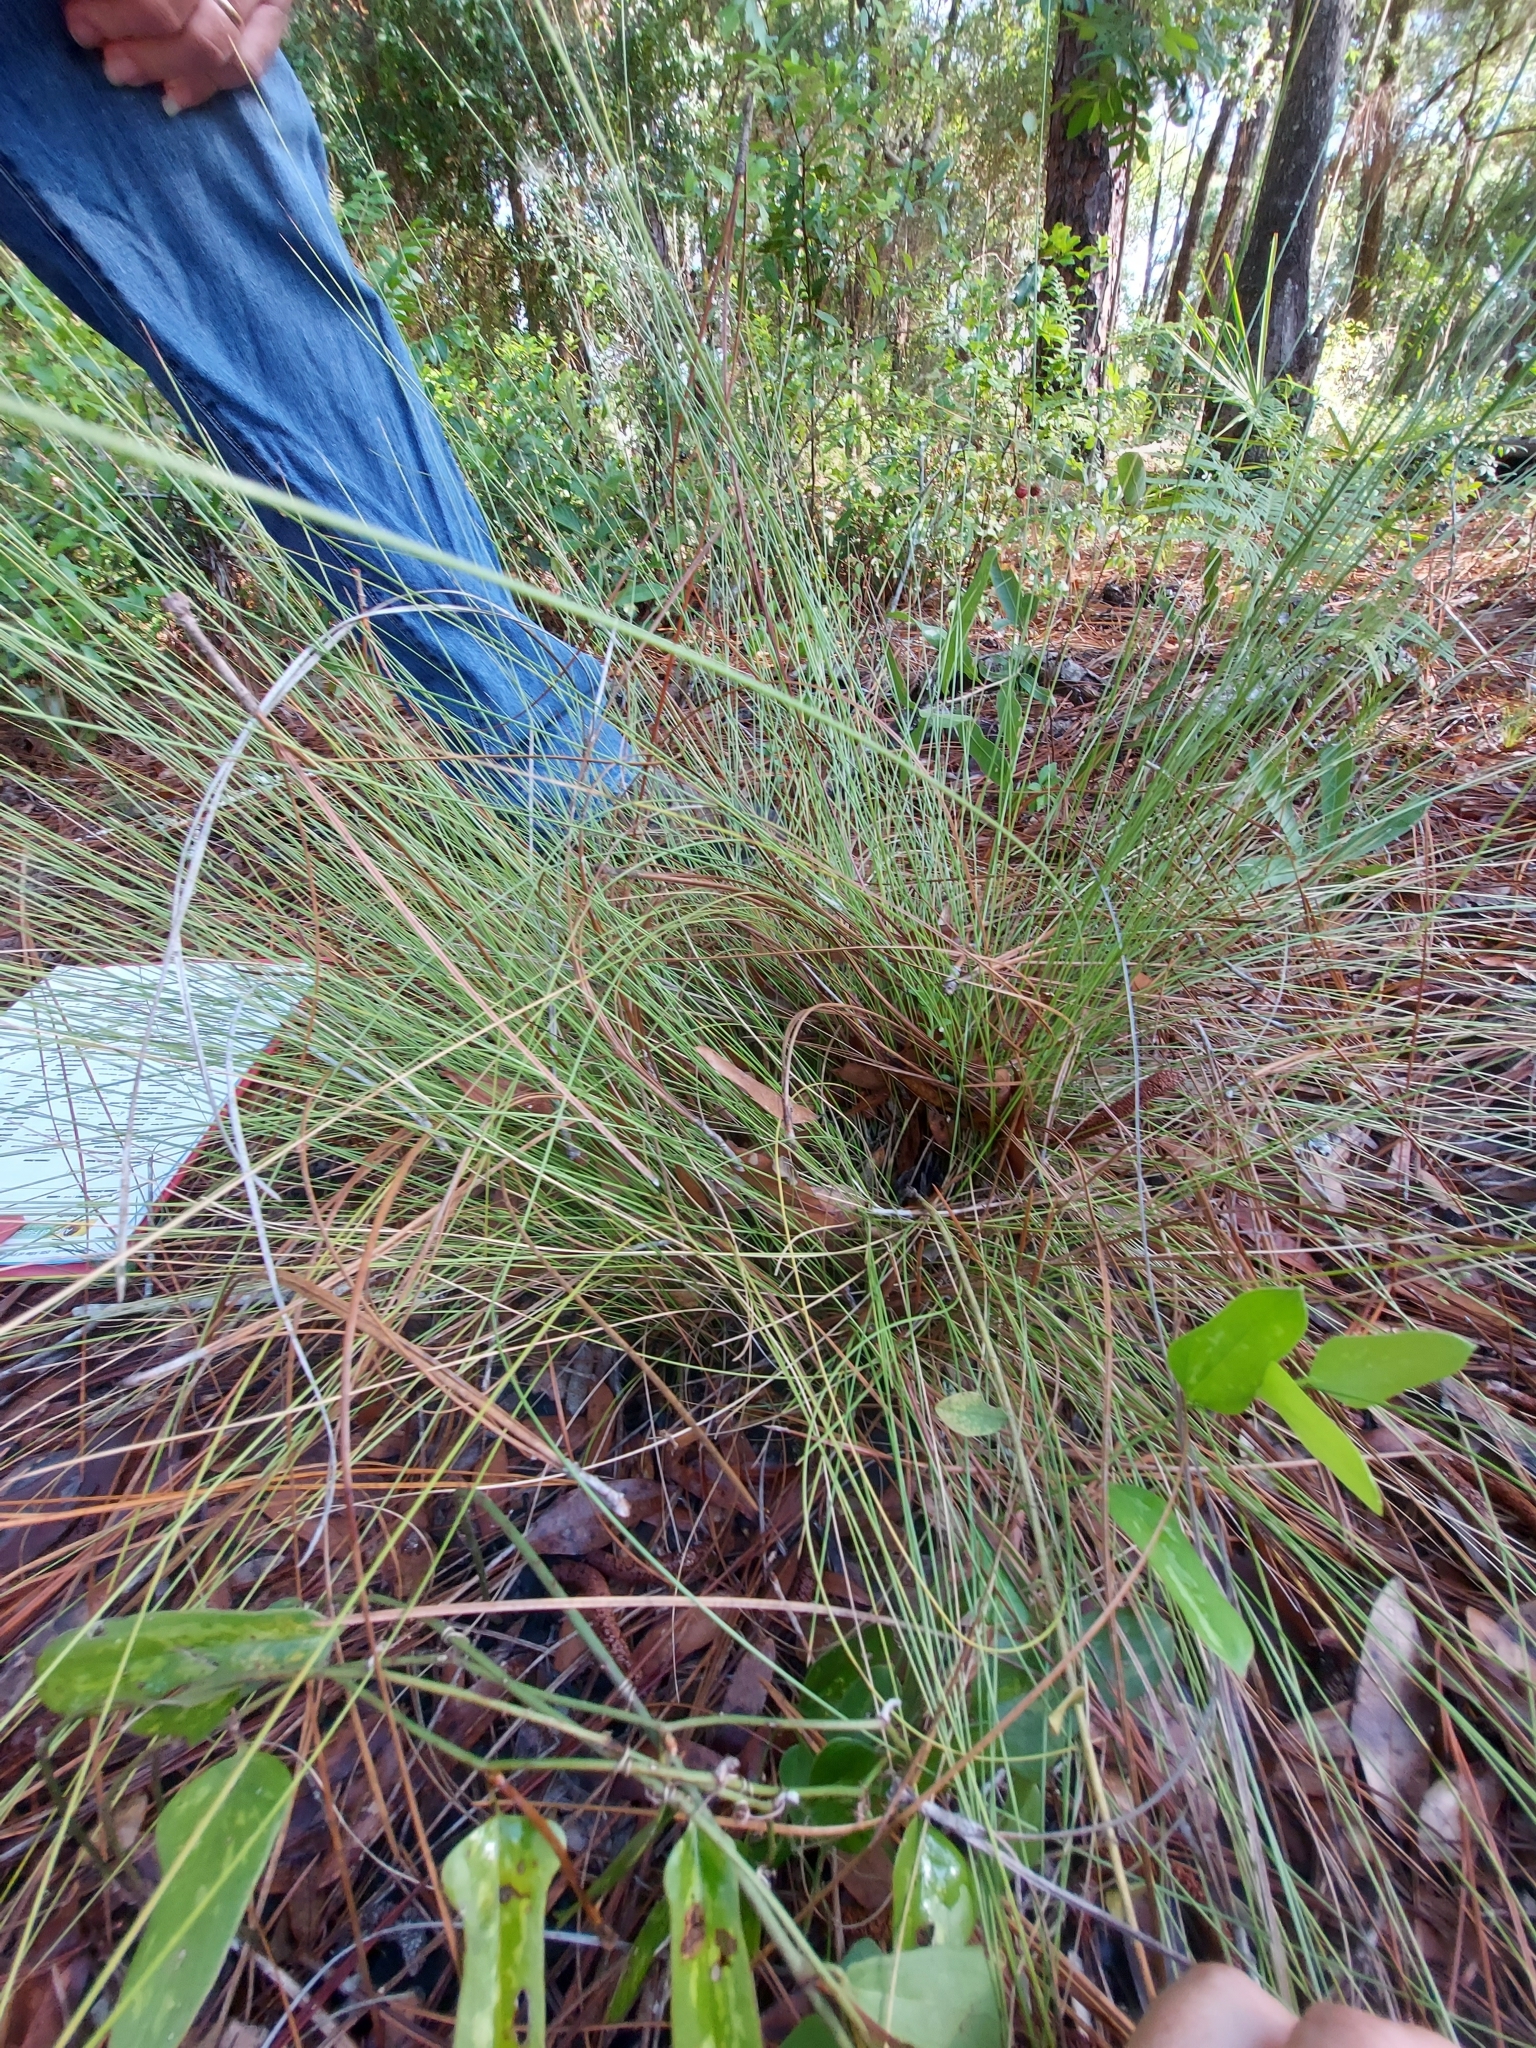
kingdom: Plantae
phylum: Tracheophyta
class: Liliopsida
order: Poales
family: Poaceae
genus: Aristida
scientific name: Aristida beyrichiana
